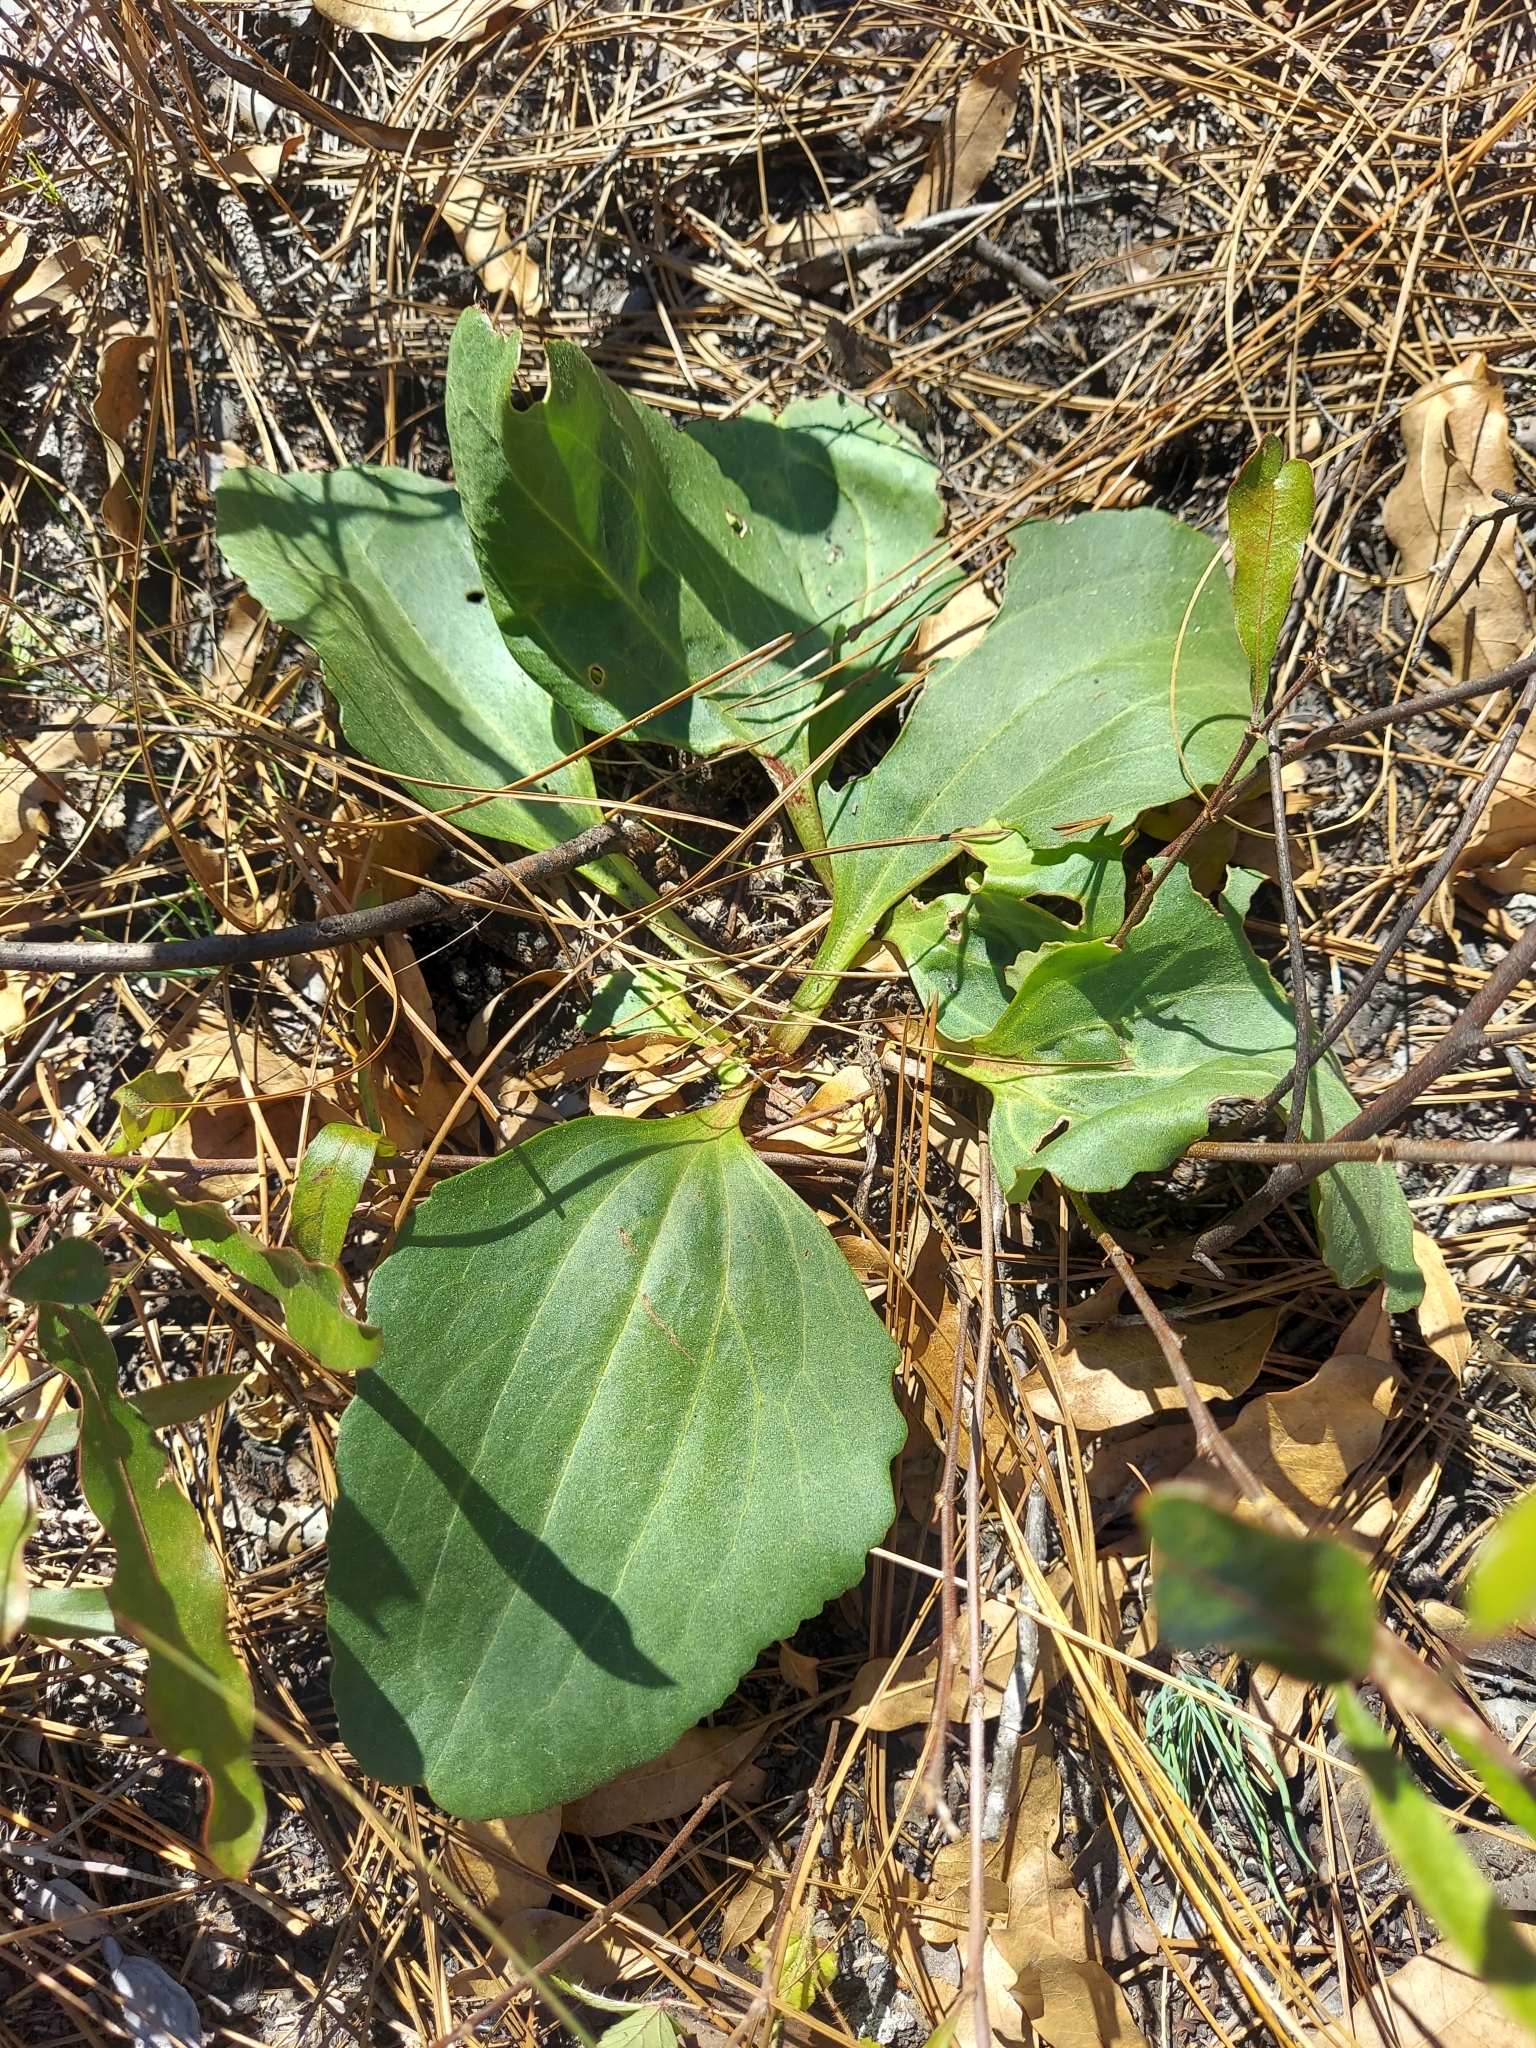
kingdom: Plantae
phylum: Tracheophyta
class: Magnoliopsida
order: Asterales
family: Asteraceae
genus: Arnoglossum
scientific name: Arnoglossum floridanum
